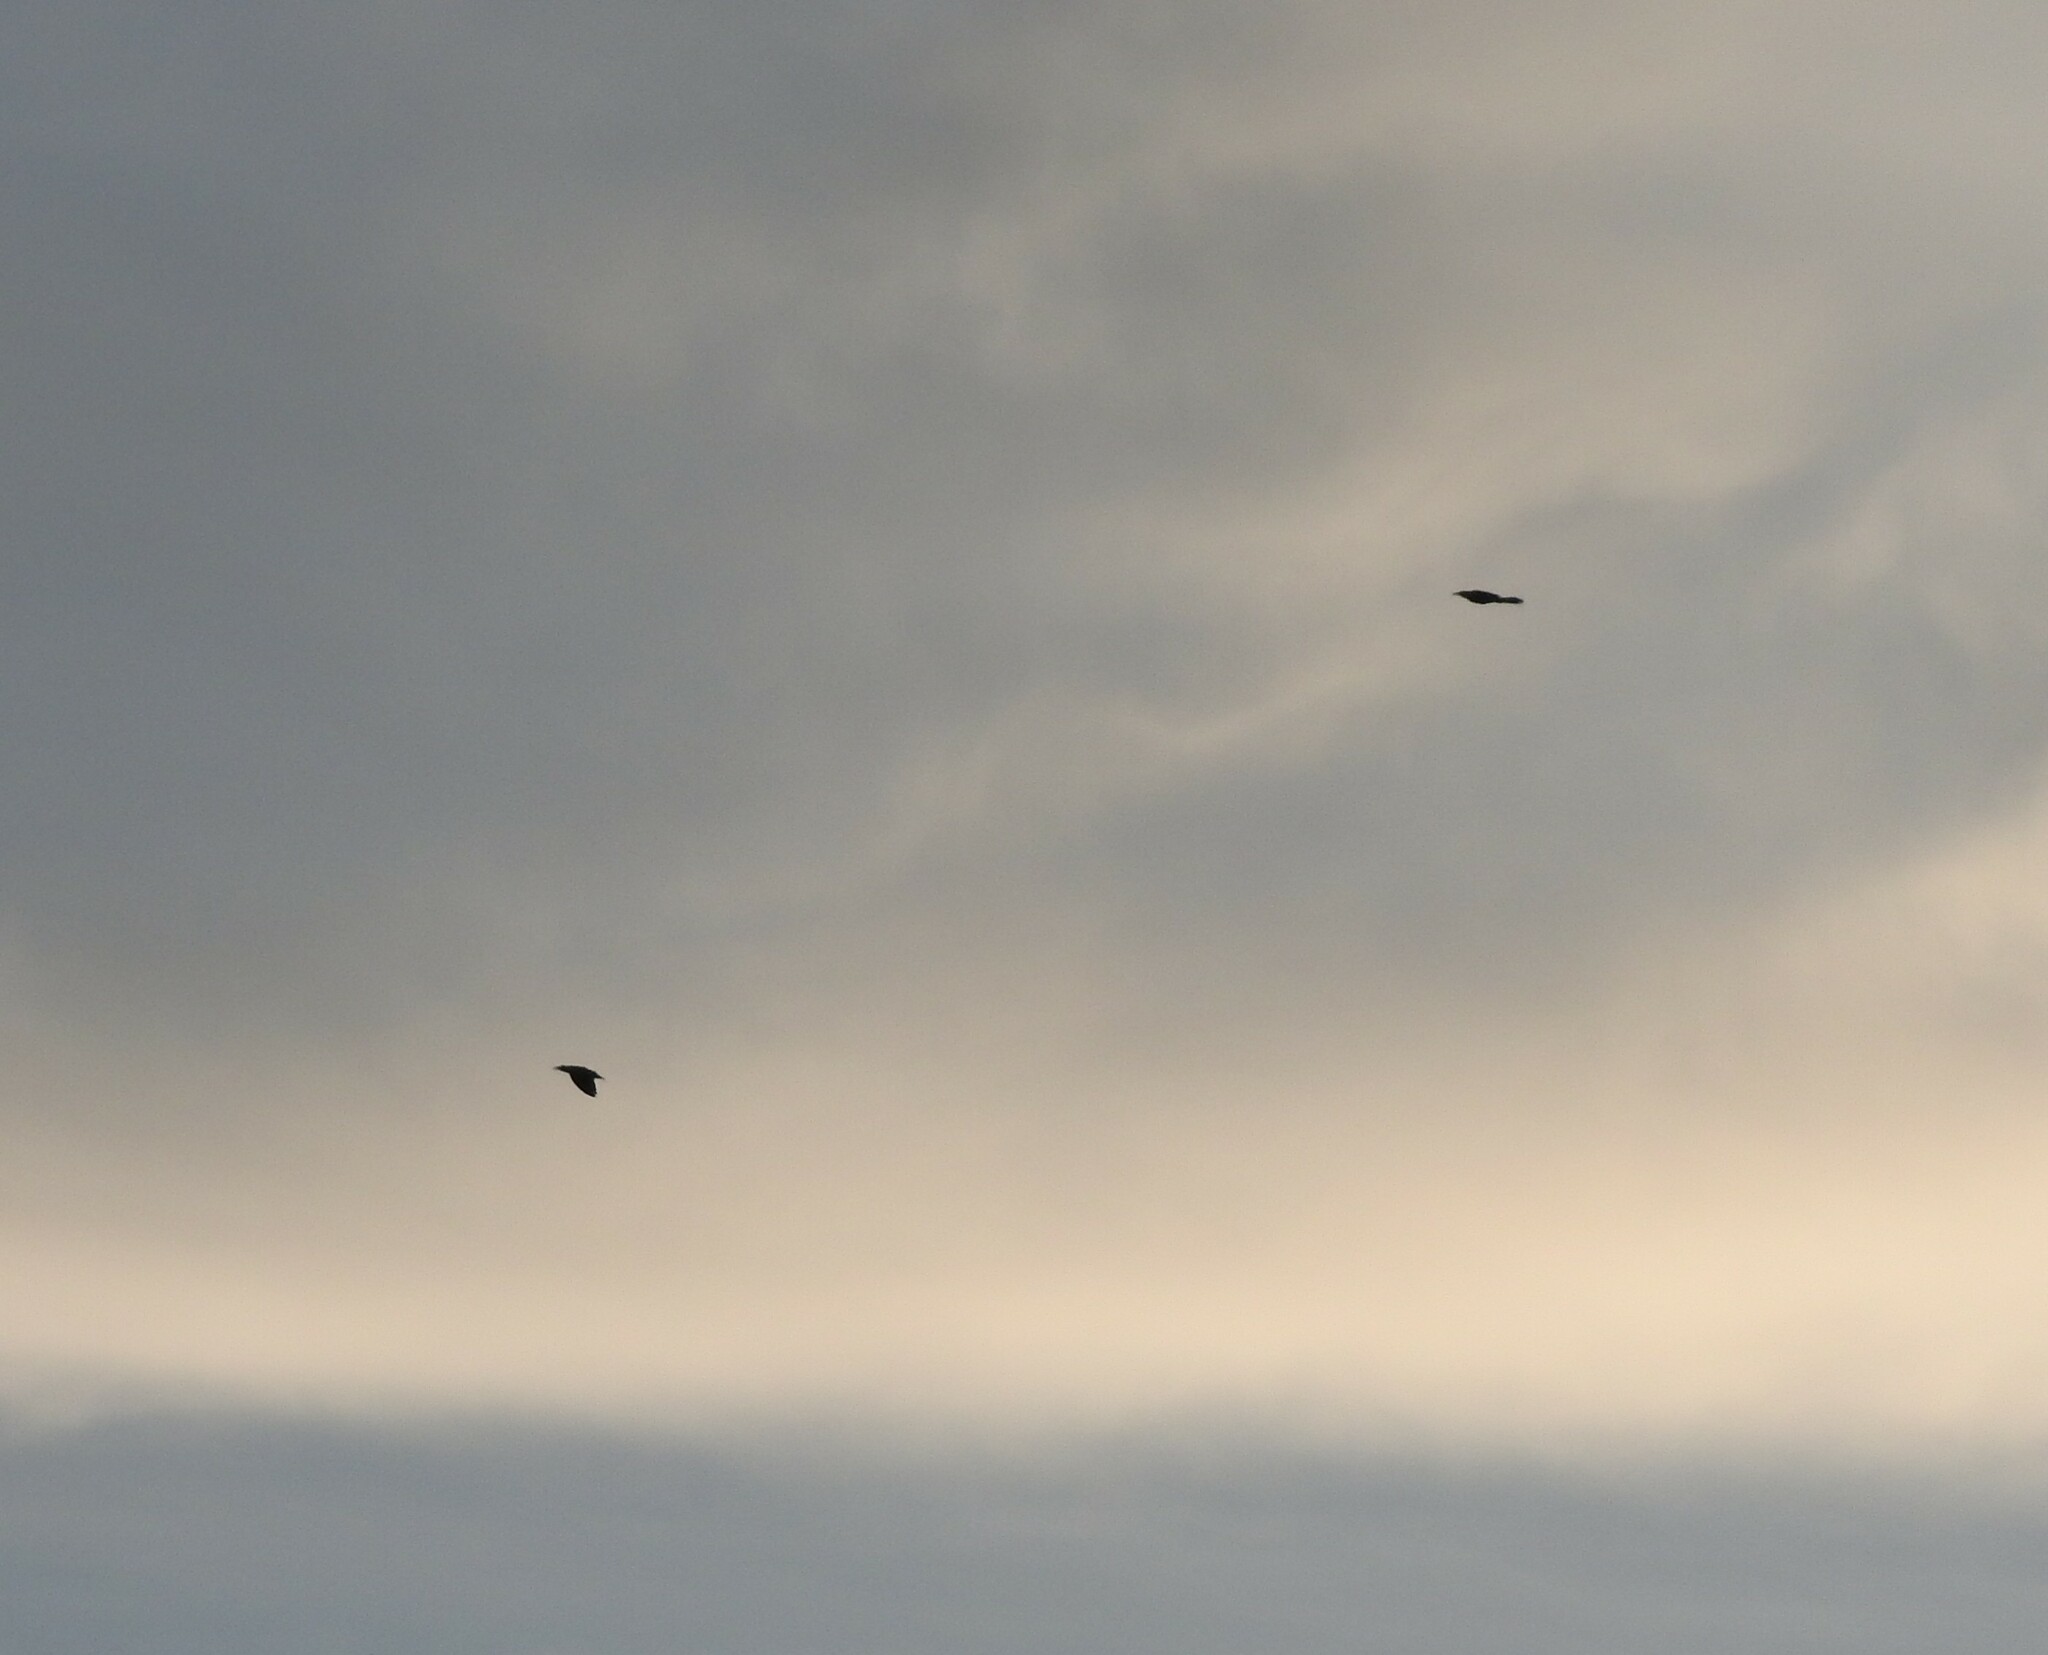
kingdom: Animalia
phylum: Chordata
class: Aves
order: Passeriformes
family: Icteridae
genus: Quiscalus
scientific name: Quiscalus mexicanus
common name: Great-tailed grackle
